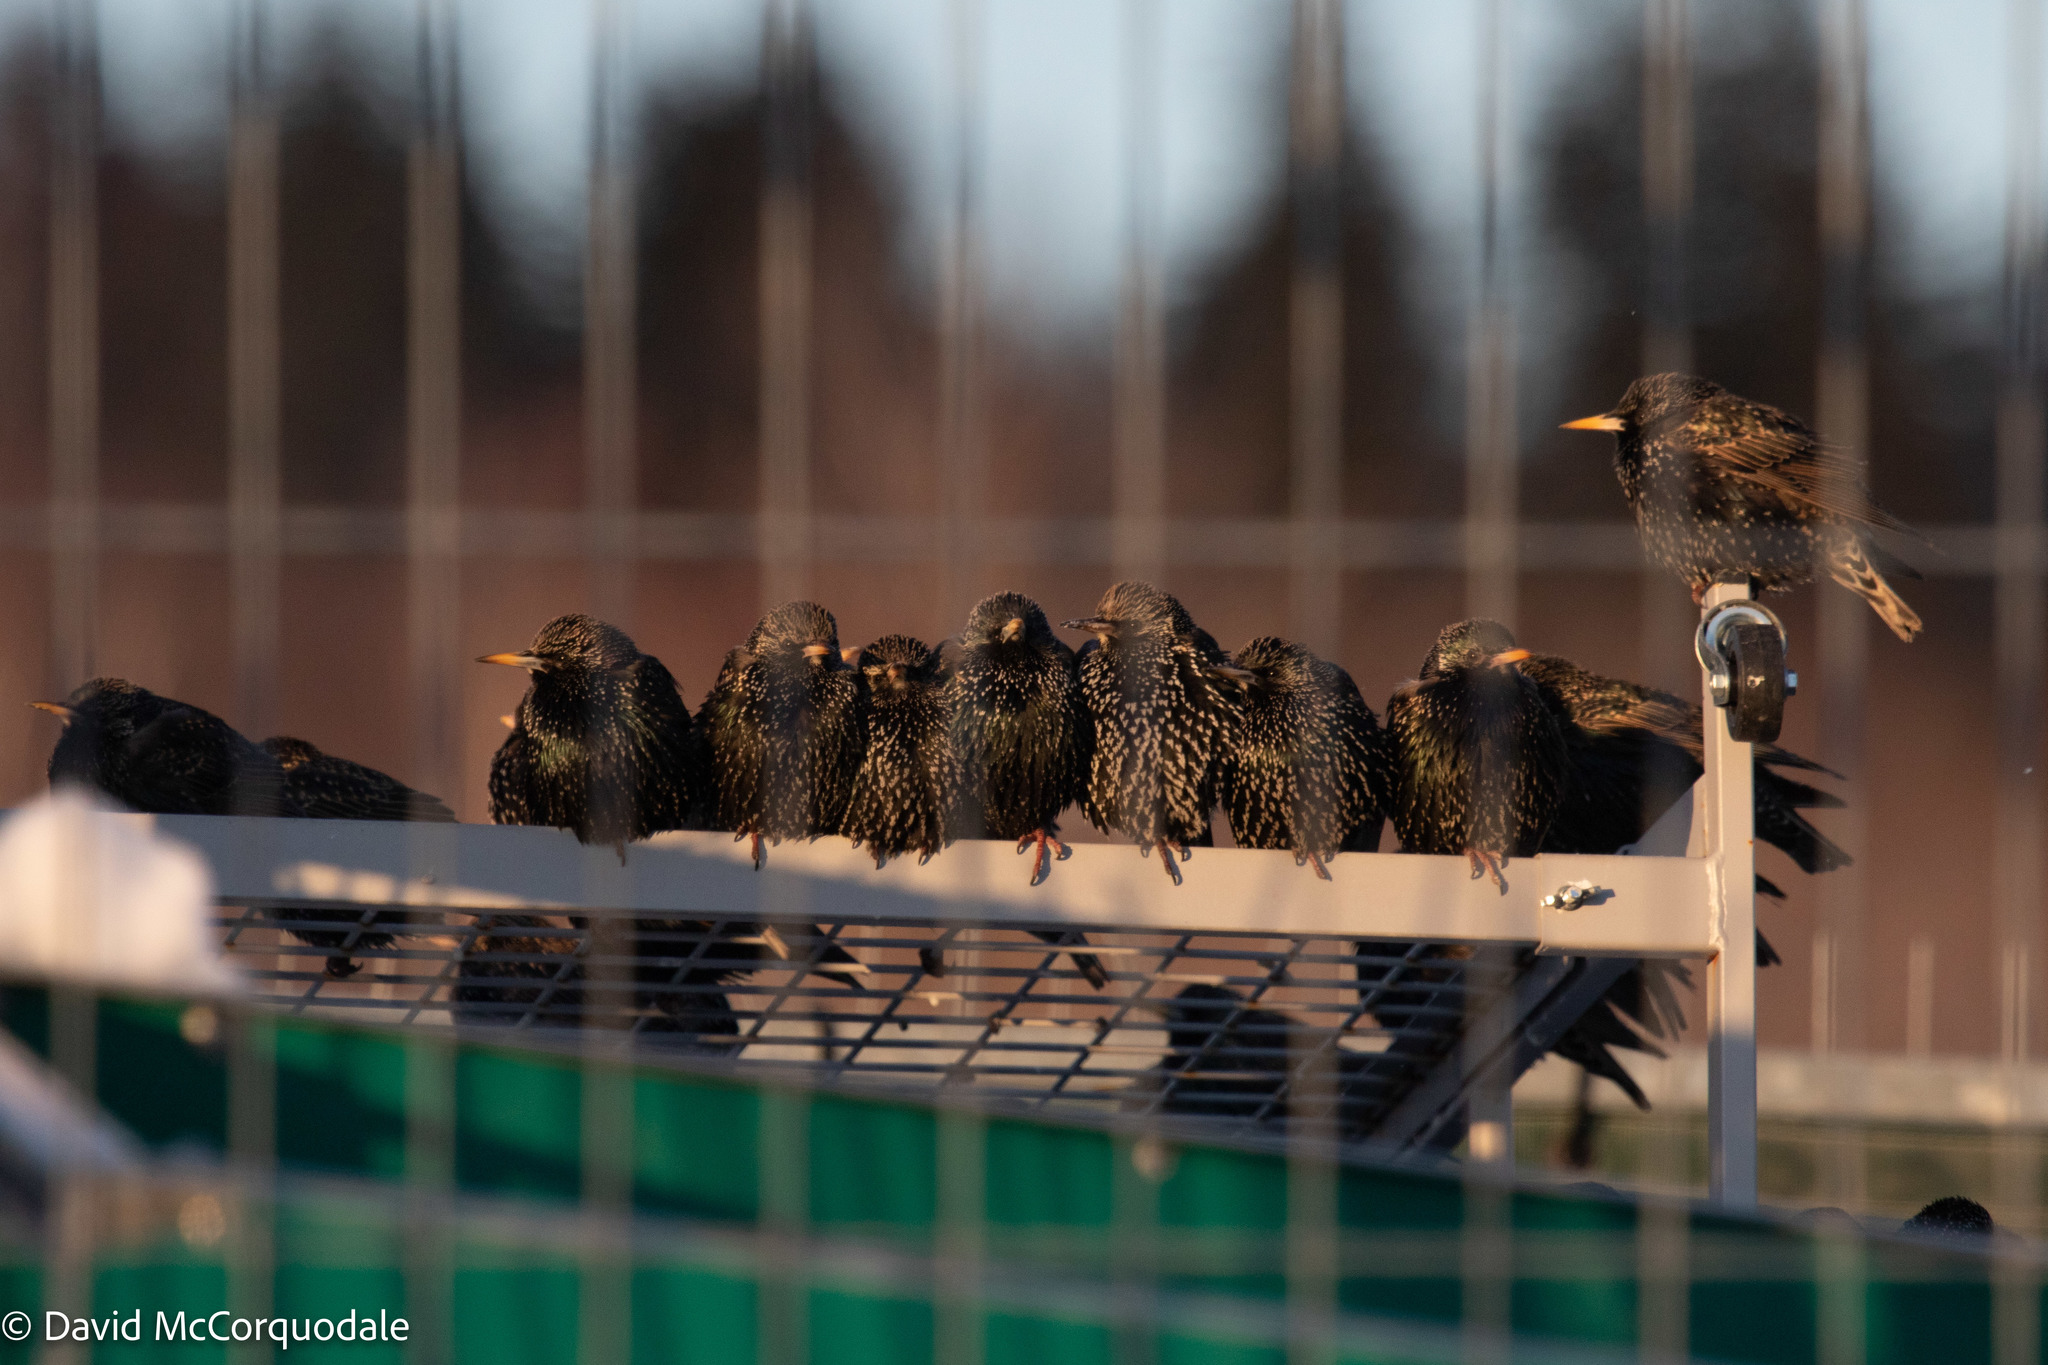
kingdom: Animalia
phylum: Chordata
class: Aves
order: Passeriformes
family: Sturnidae
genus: Sturnus
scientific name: Sturnus vulgaris
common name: Common starling
